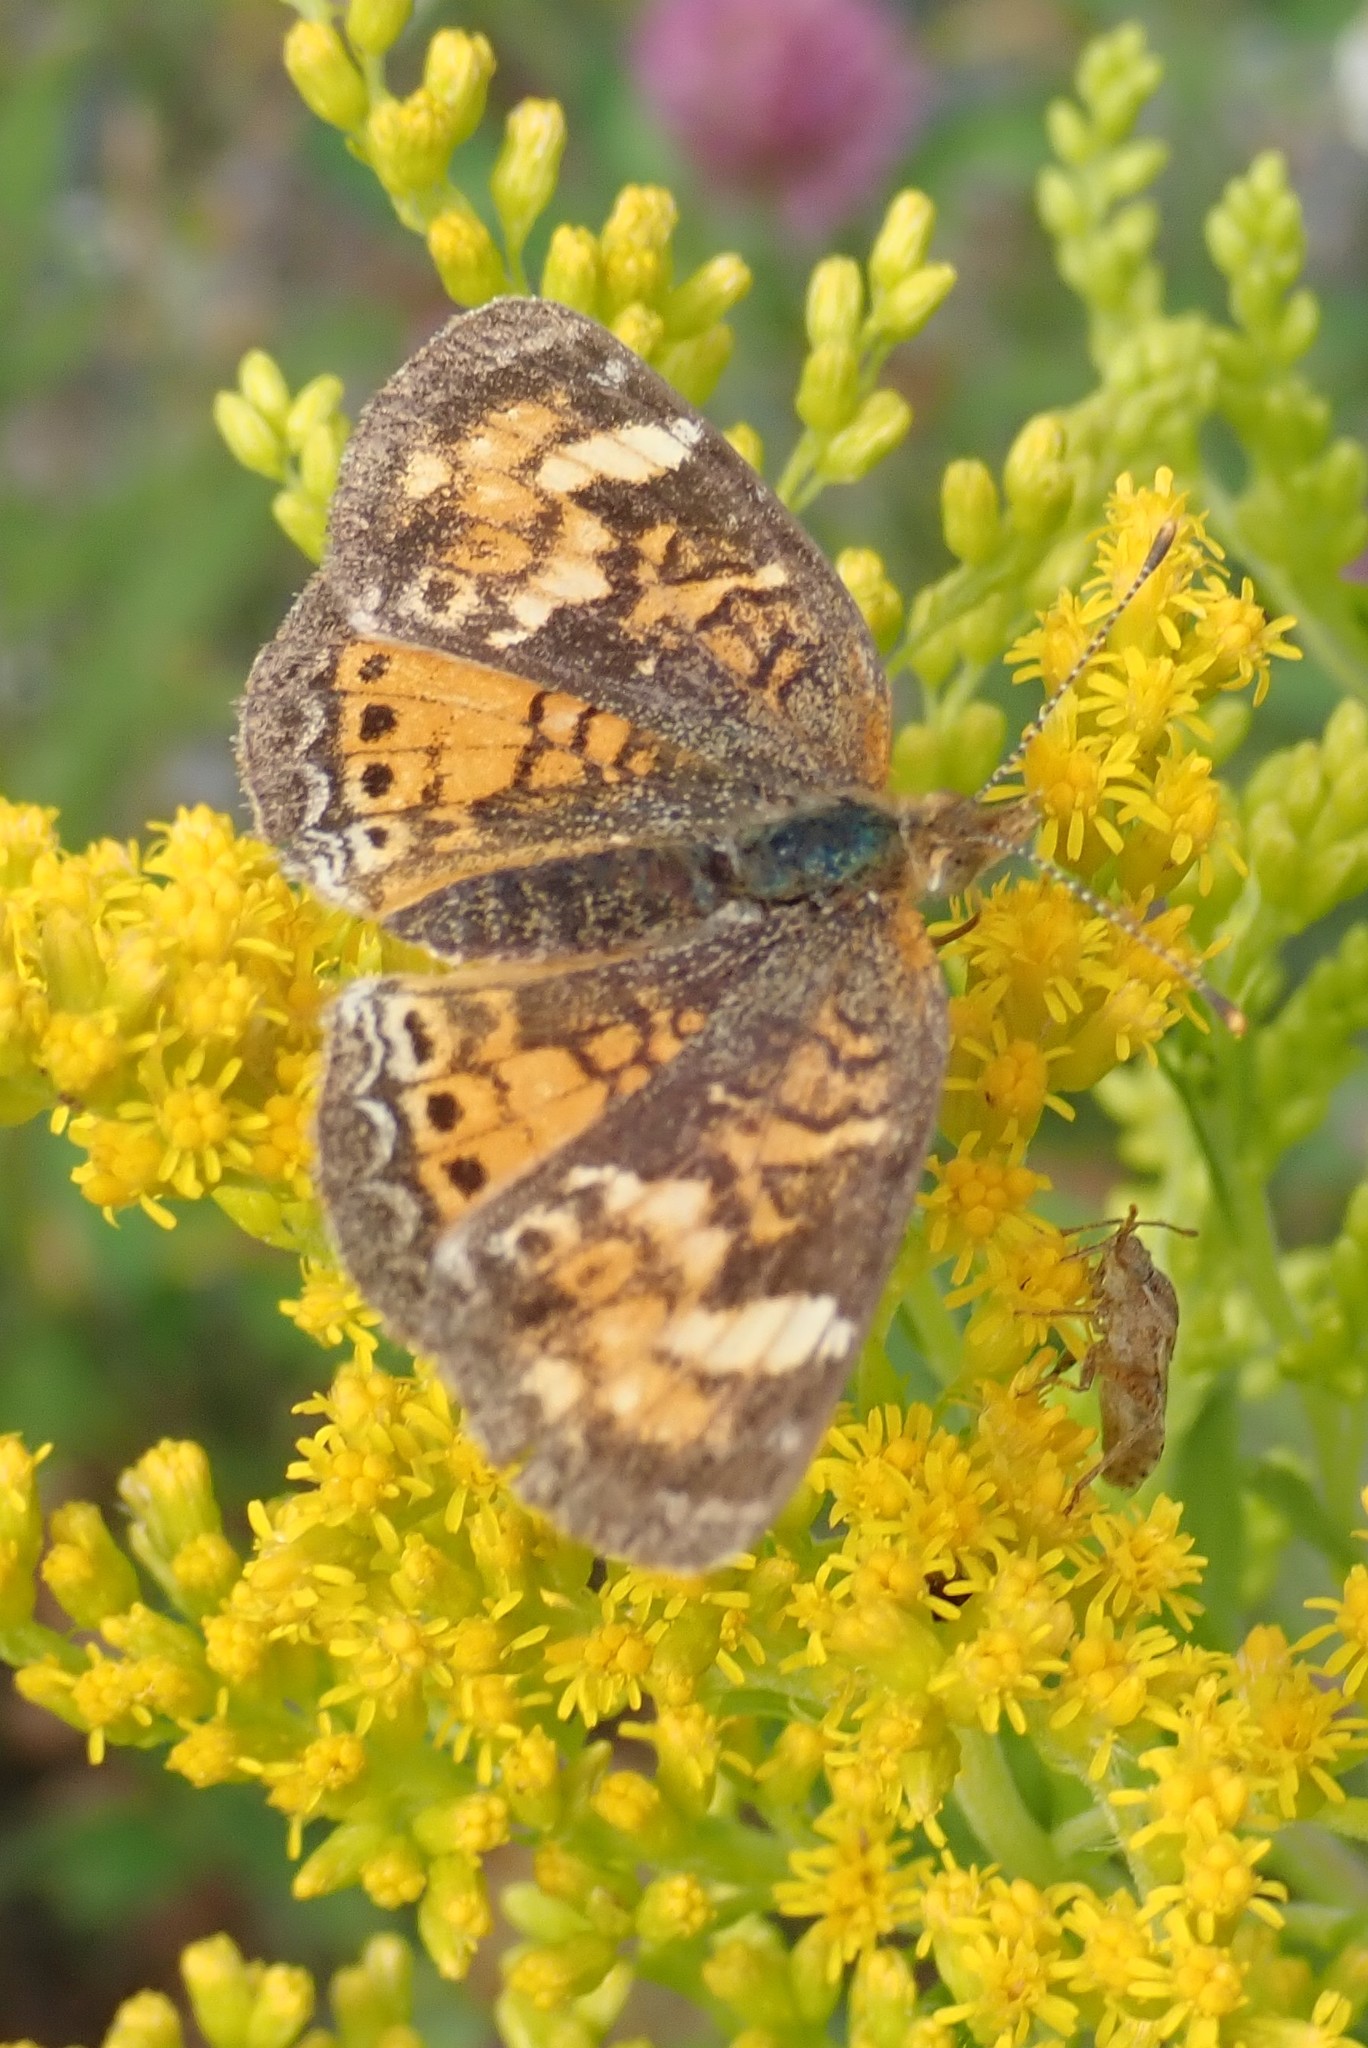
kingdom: Animalia
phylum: Arthropoda
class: Insecta
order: Lepidoptera
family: Nymphalidae
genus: Phyciodes
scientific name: Phyciodes tharos
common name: Pearl crescent
